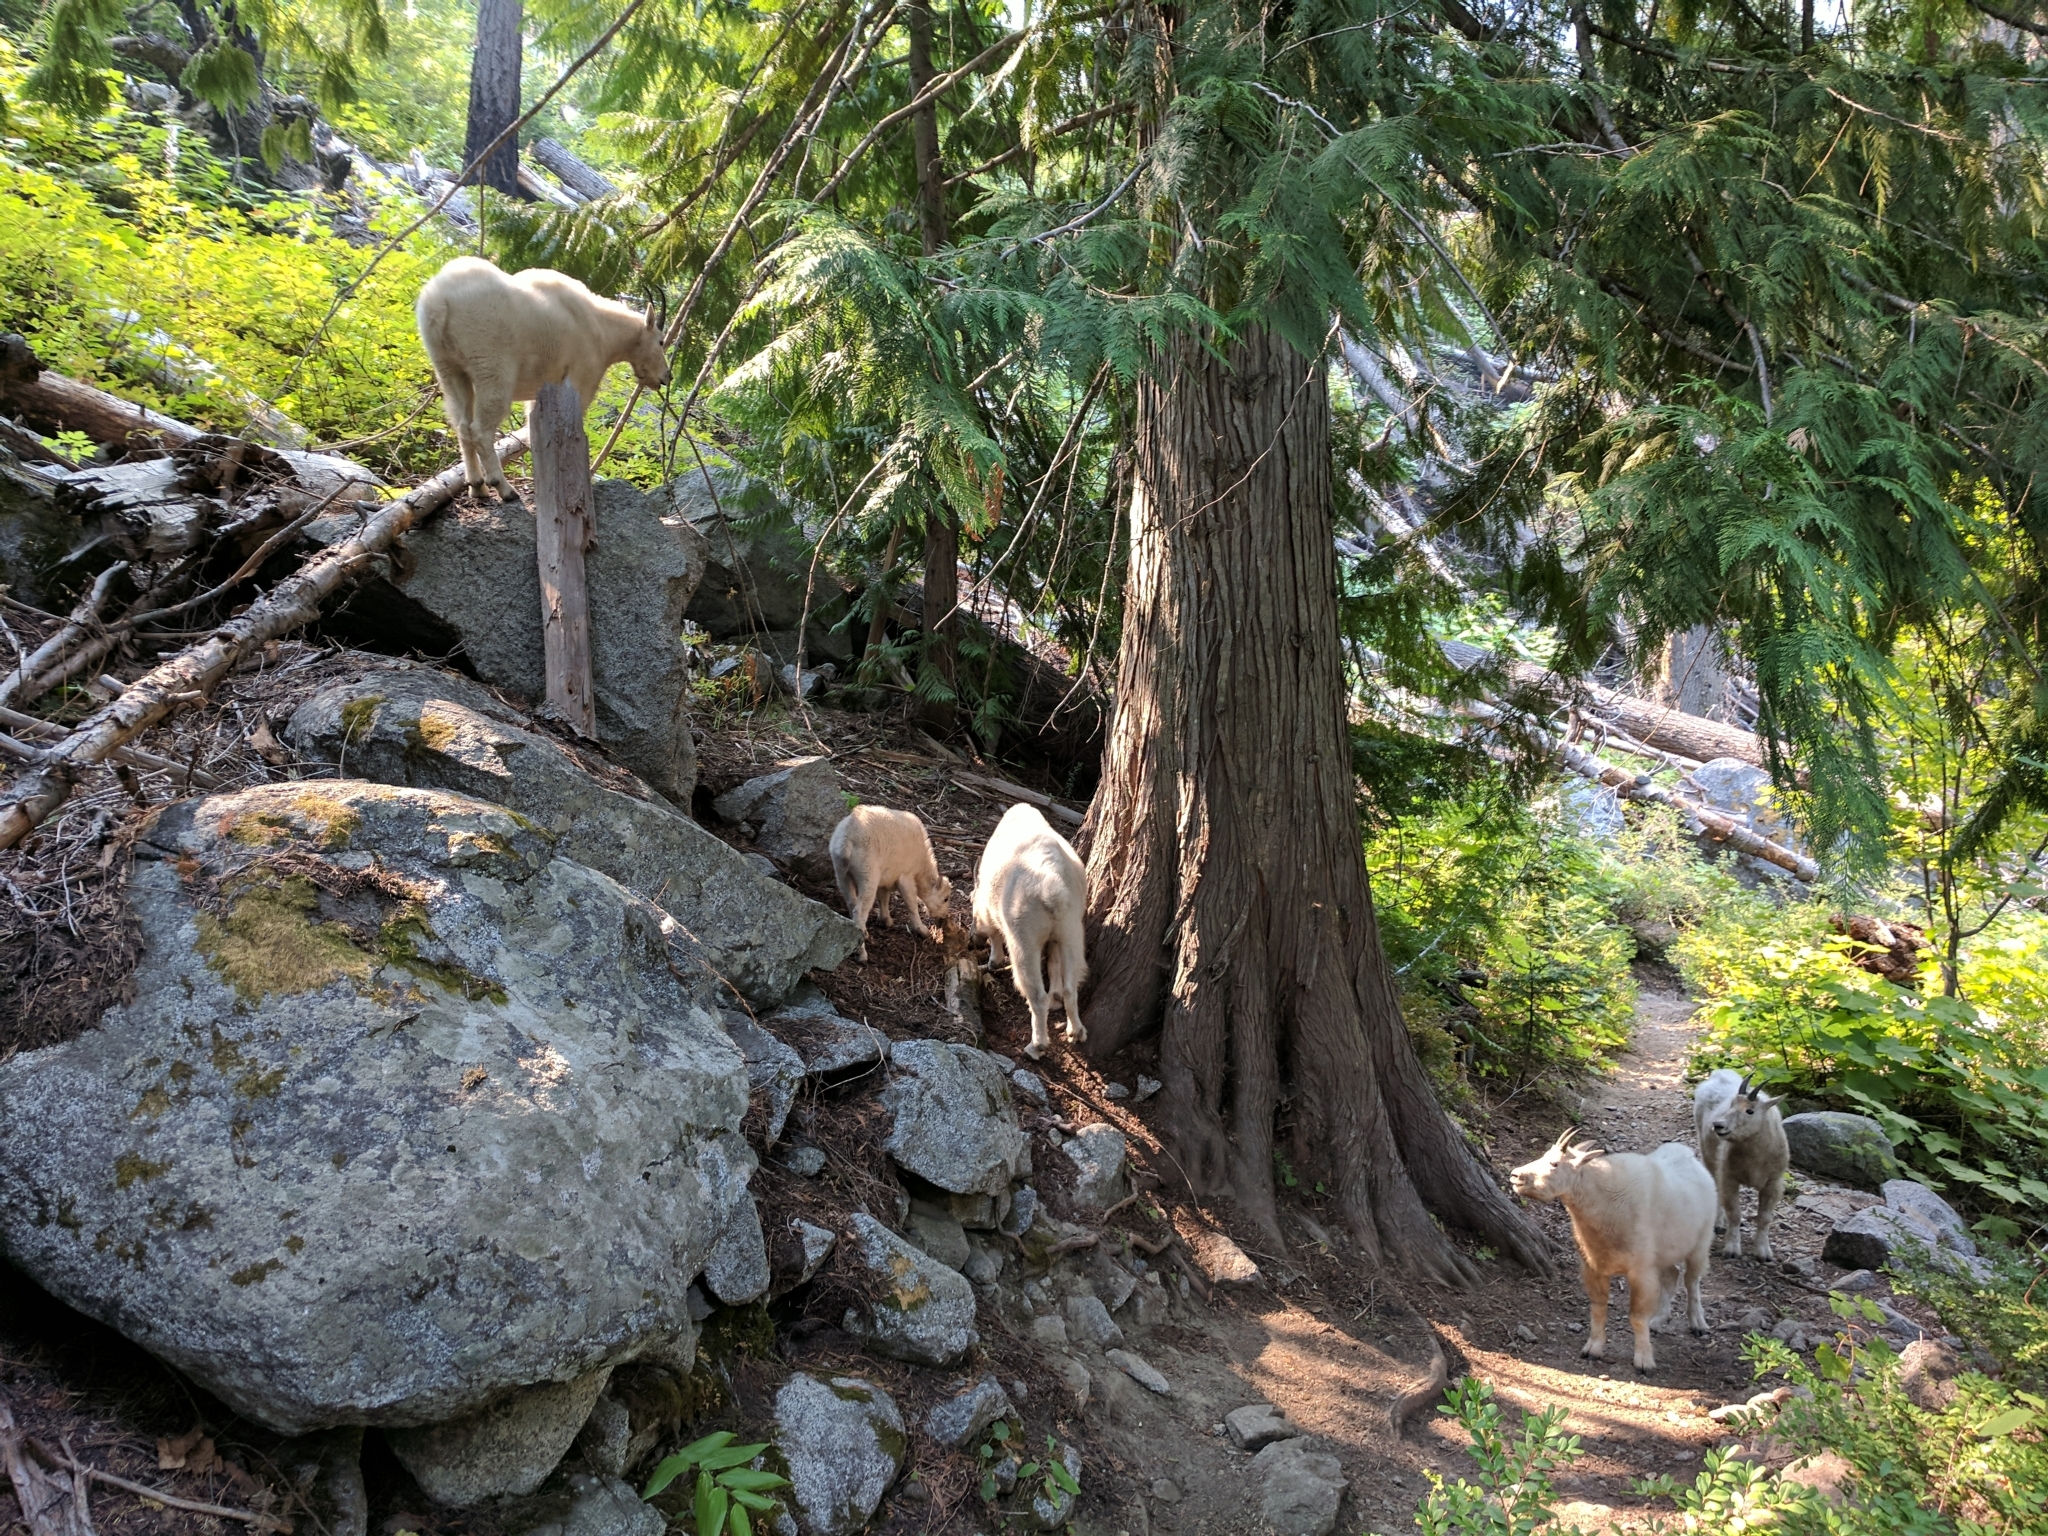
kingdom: Animalia
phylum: Chordata
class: Mammalia
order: Artiodactyla
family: Bovidae
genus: Oreamnos
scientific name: Oreamnos americanus
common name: Mountain goat
